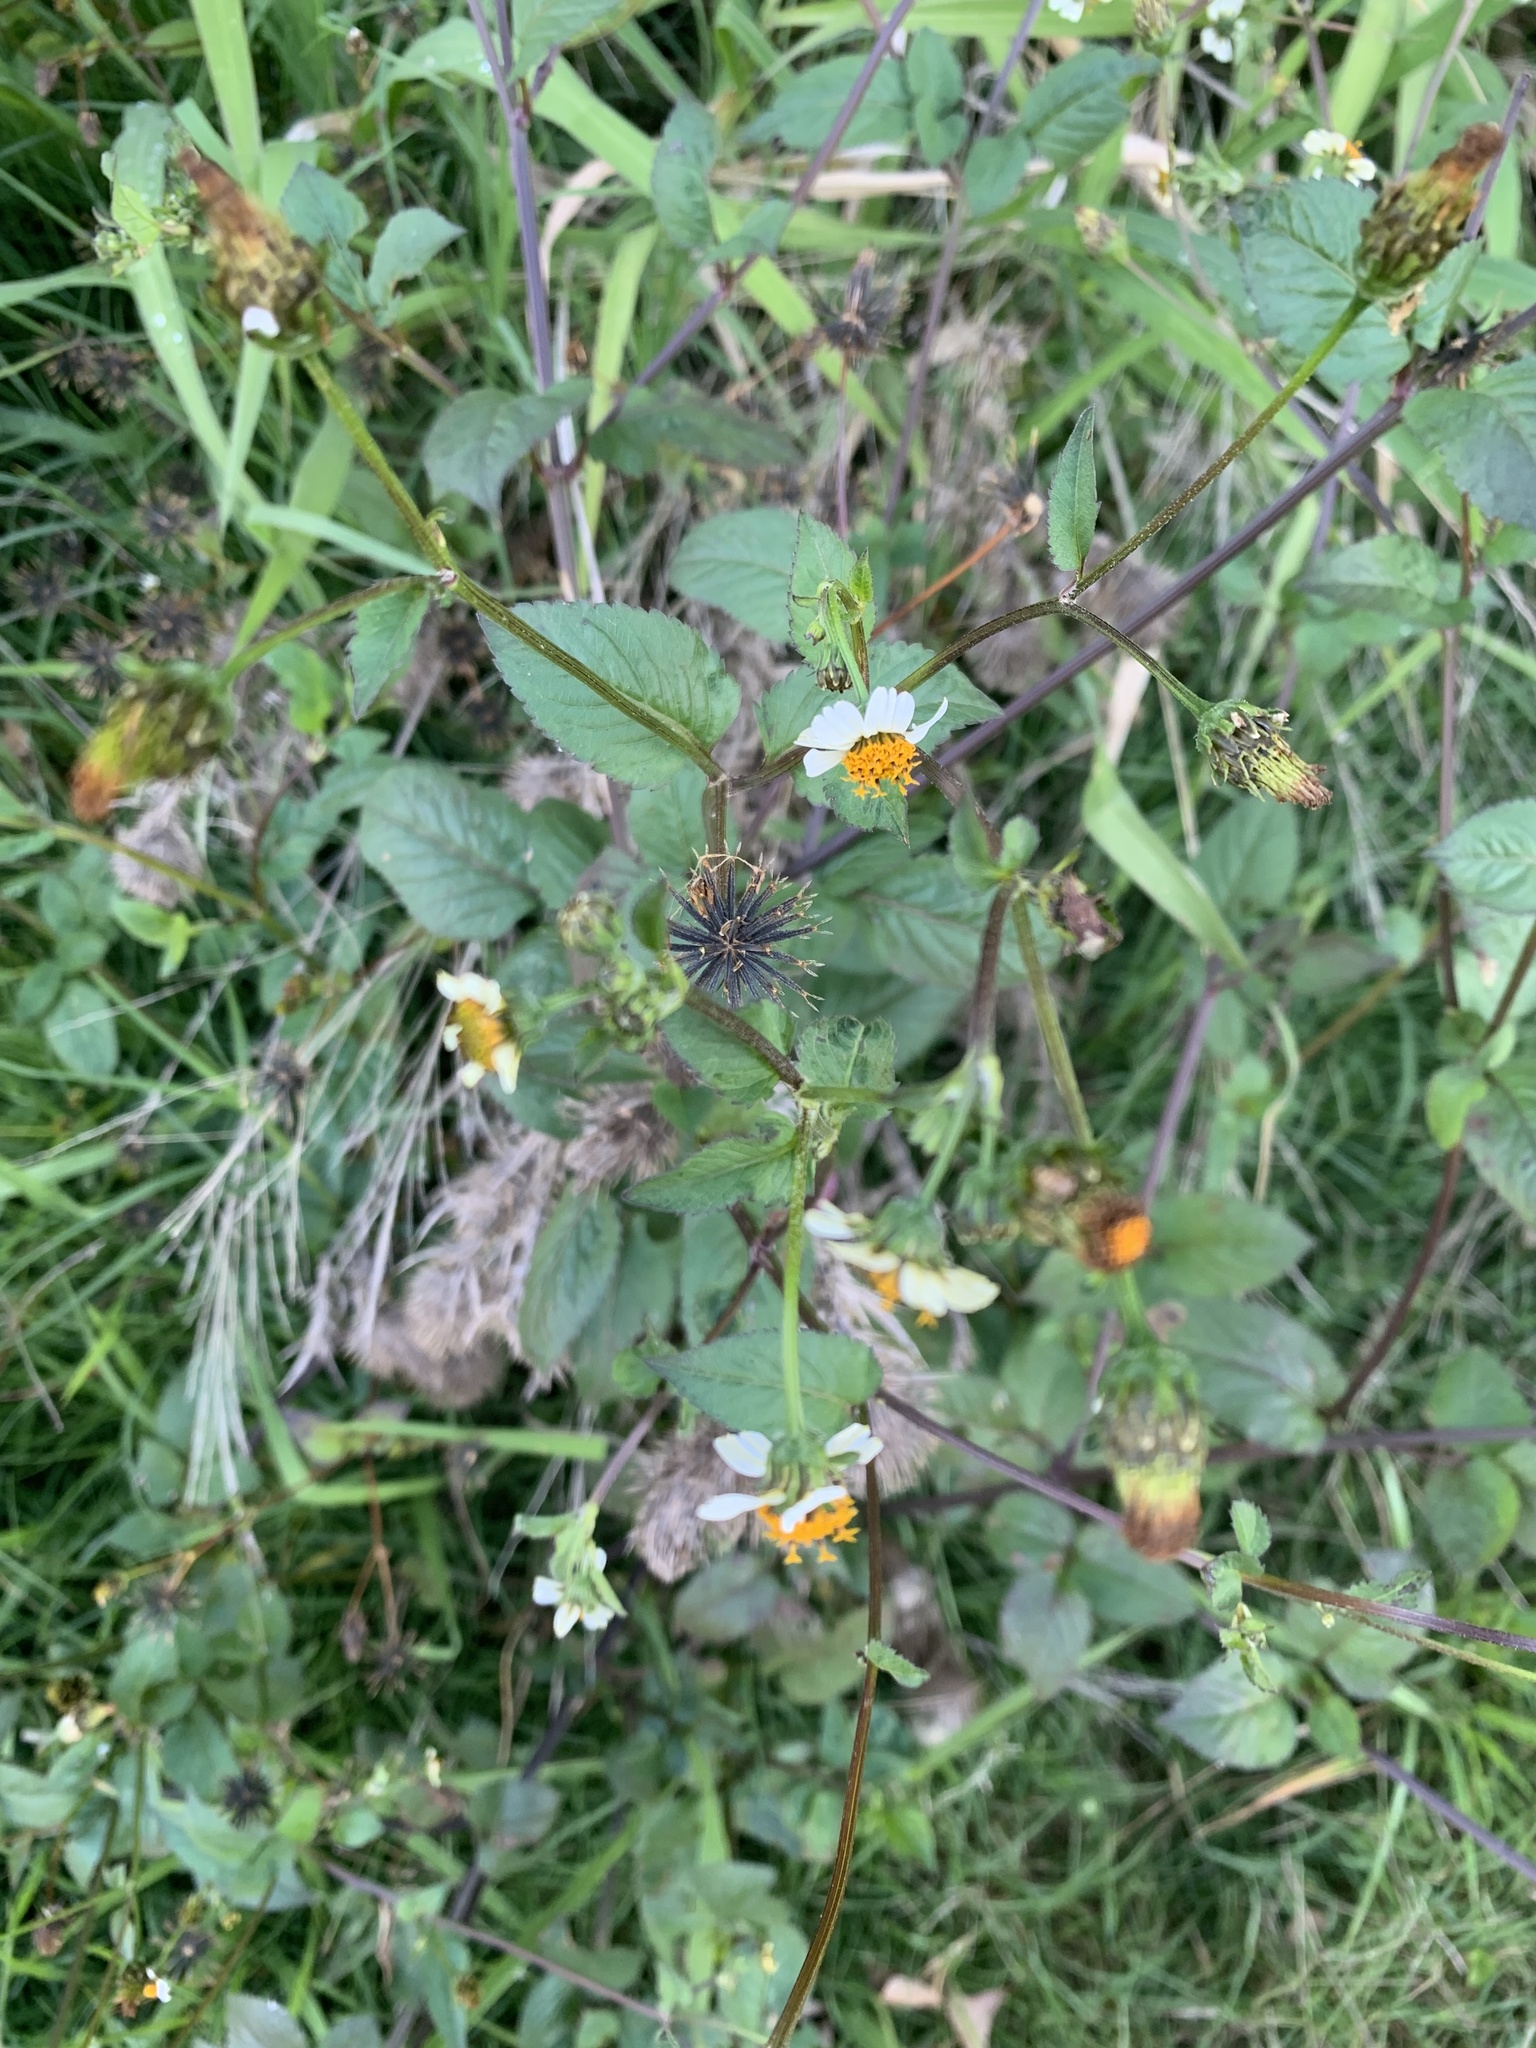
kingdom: Plantae
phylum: Tracheophyta
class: Magnoliopsida
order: Asterales
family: Asteraceae
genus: Bidens
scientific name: Bidens pilosa
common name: Black-jack
